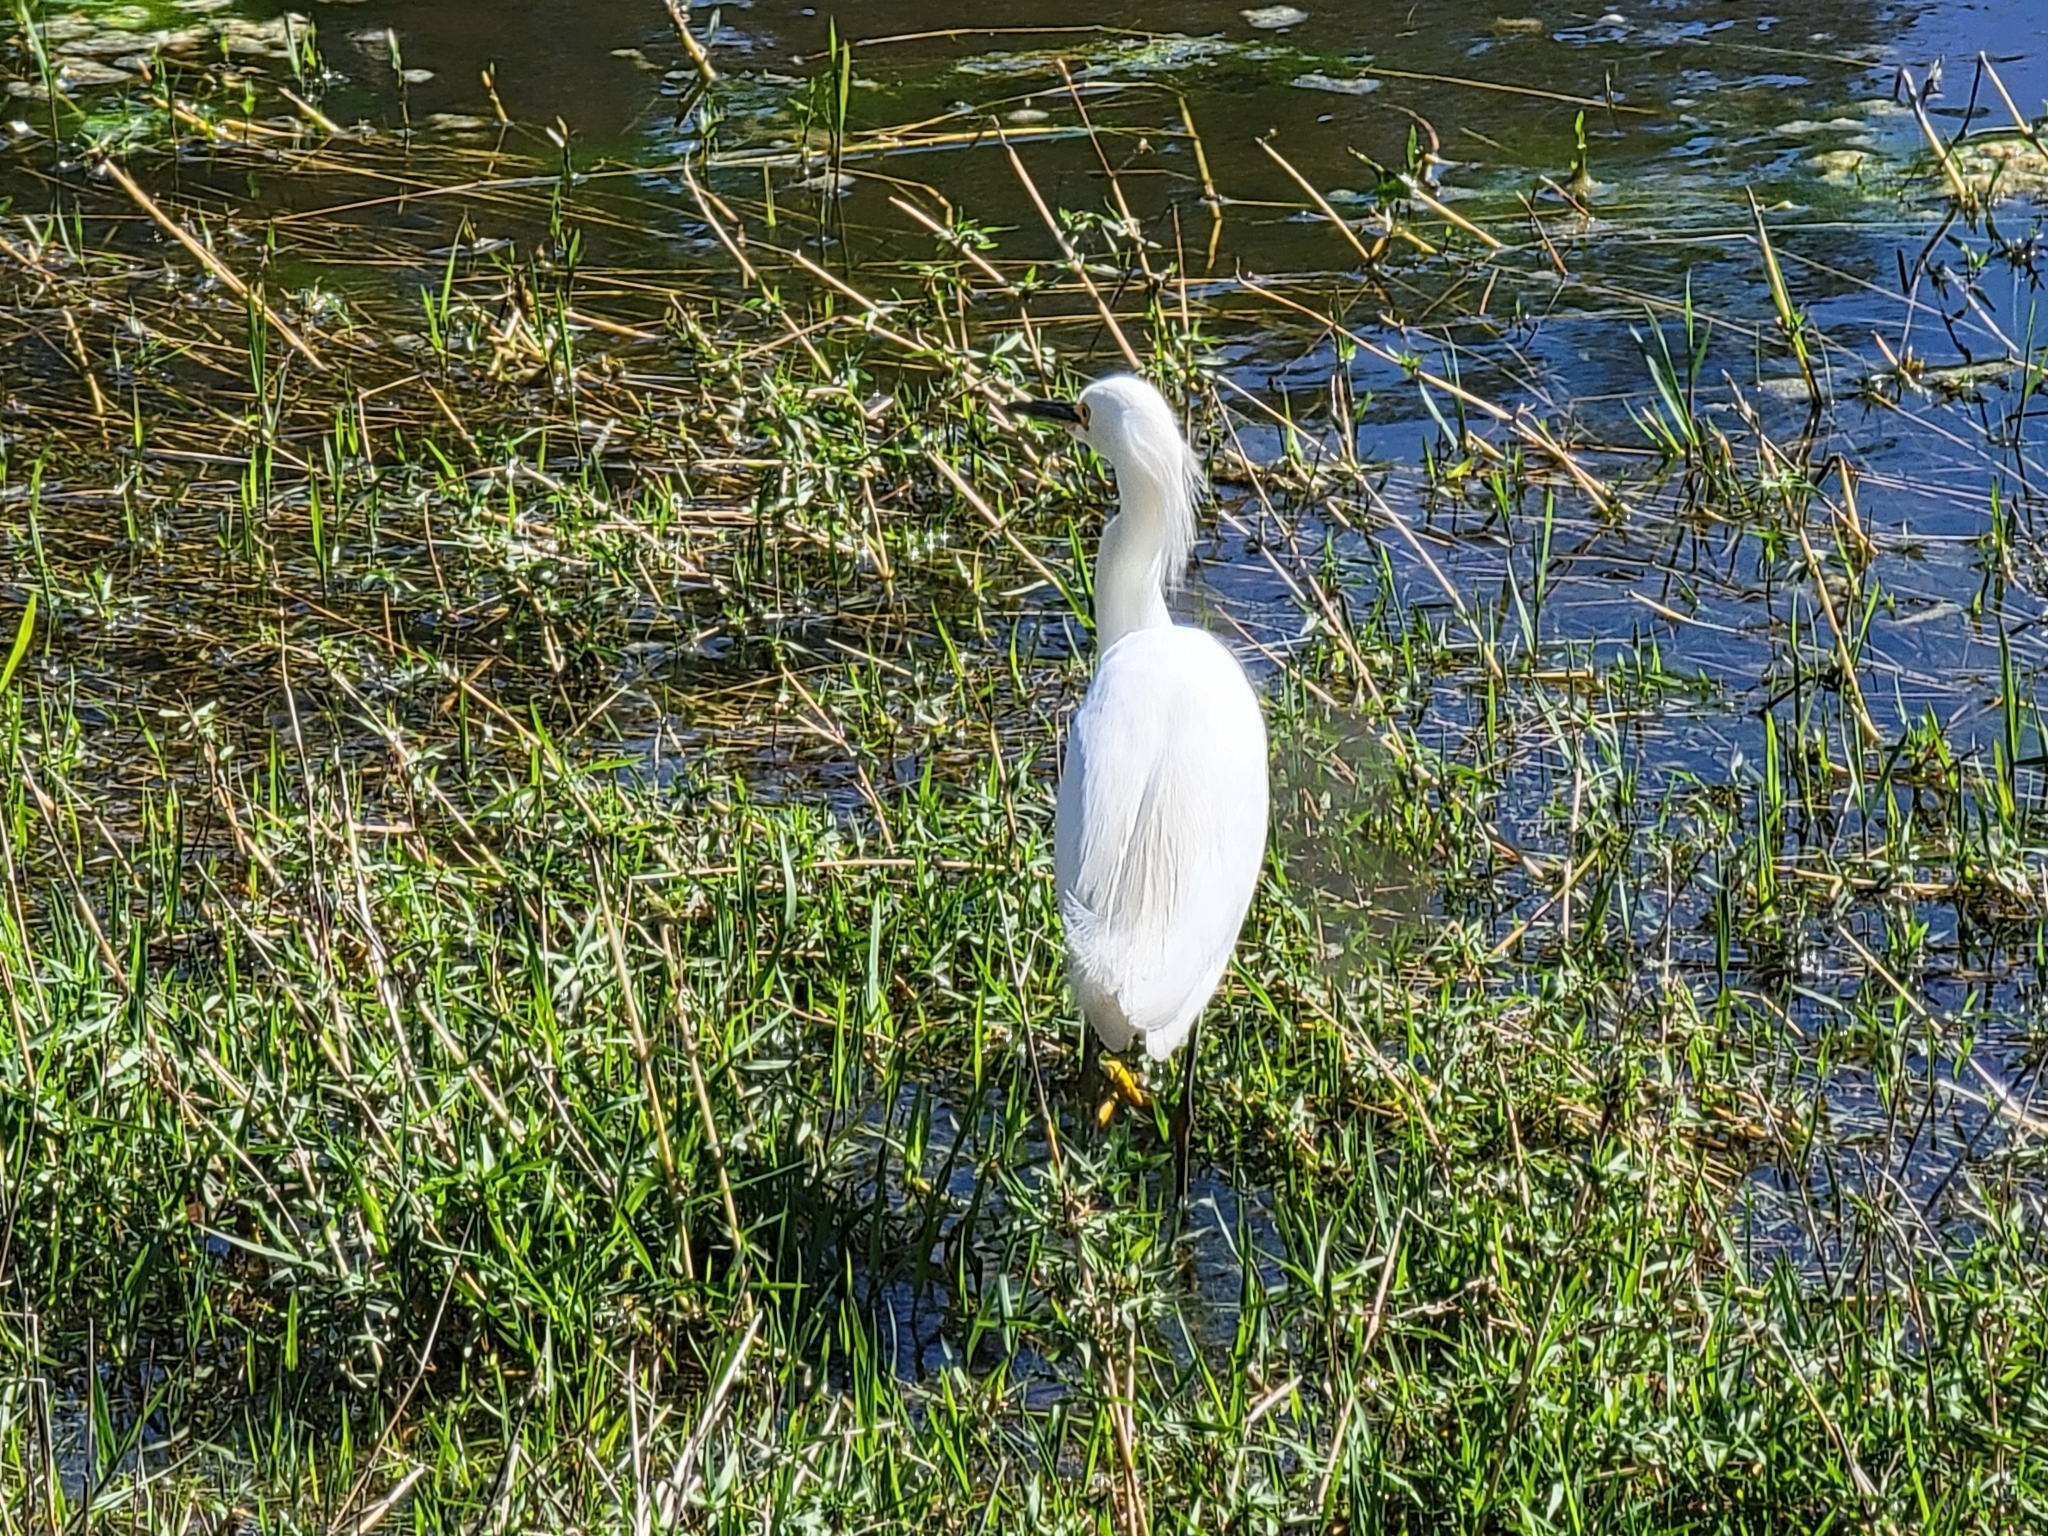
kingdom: Animalia
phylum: Chordata
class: Aves
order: Pelecaniformes
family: Ardeidae
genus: Egretta
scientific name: Egretta thula
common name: Snowy egret
